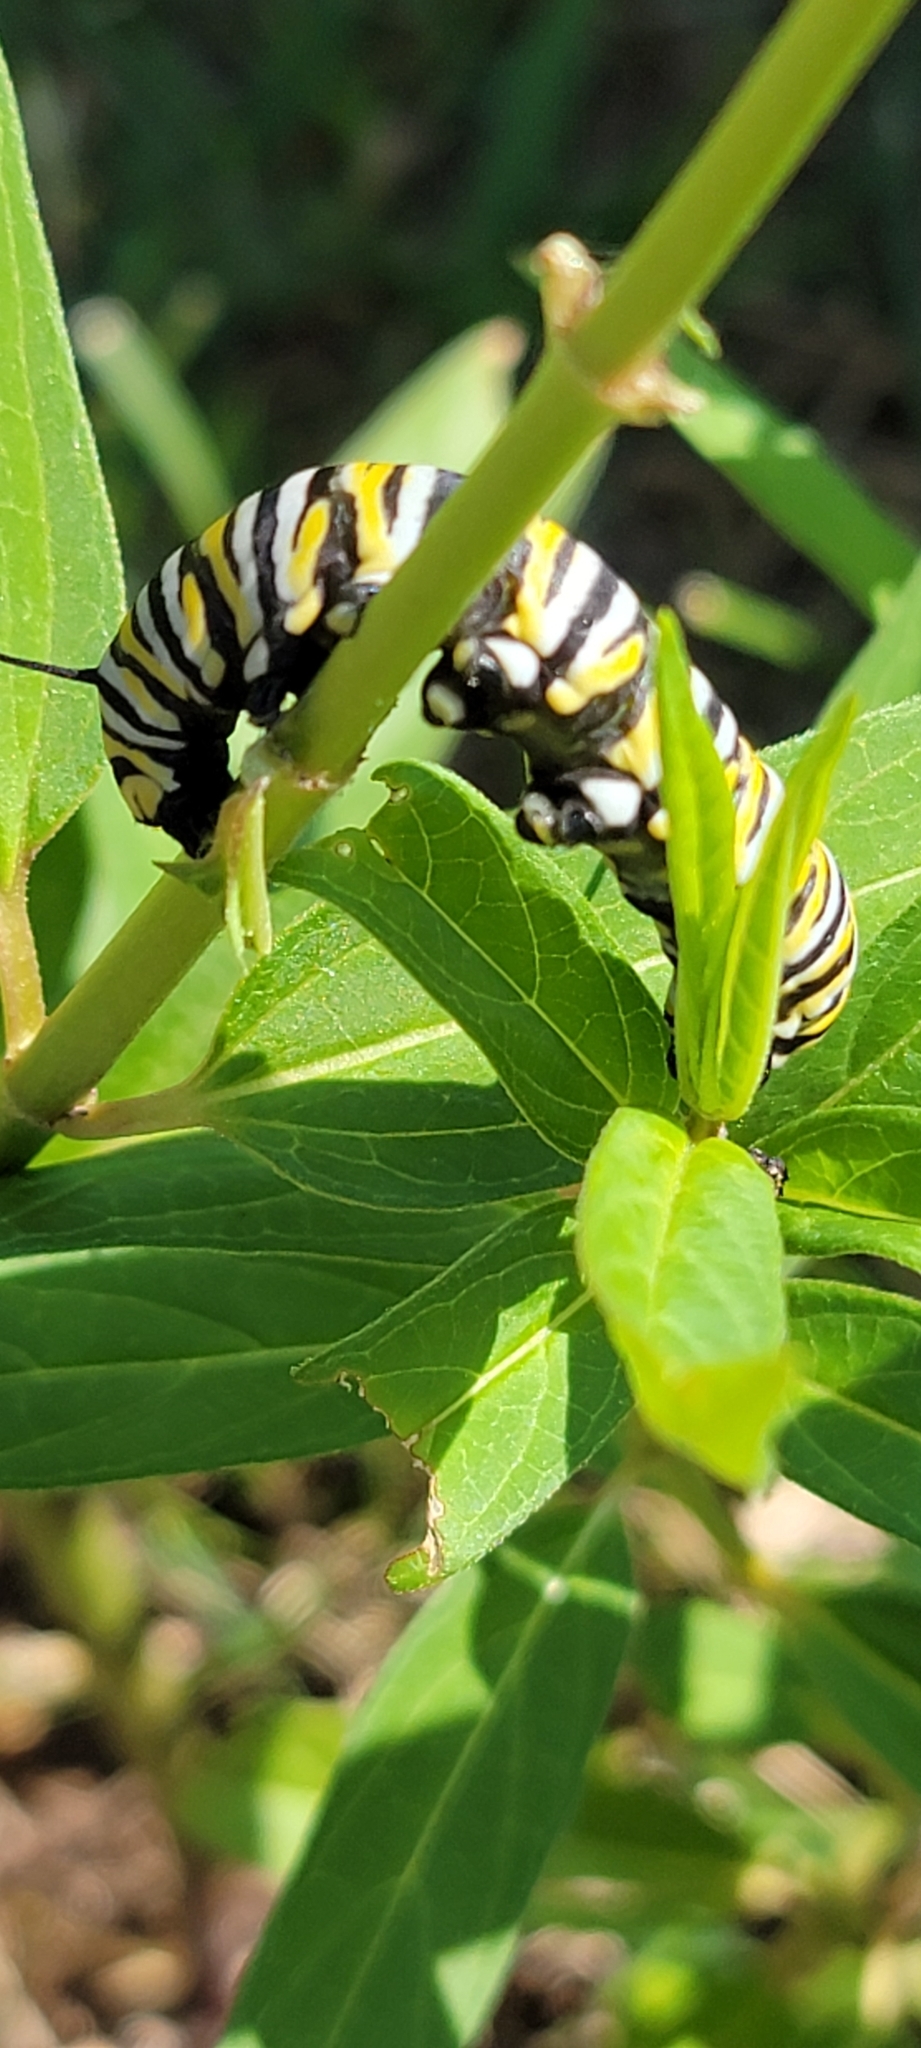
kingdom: Animalia
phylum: Arthropoda
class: Insecta
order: Lepidoptera
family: Nymphalidae
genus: Danaus
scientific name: Danaus plexippus
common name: Monarch
